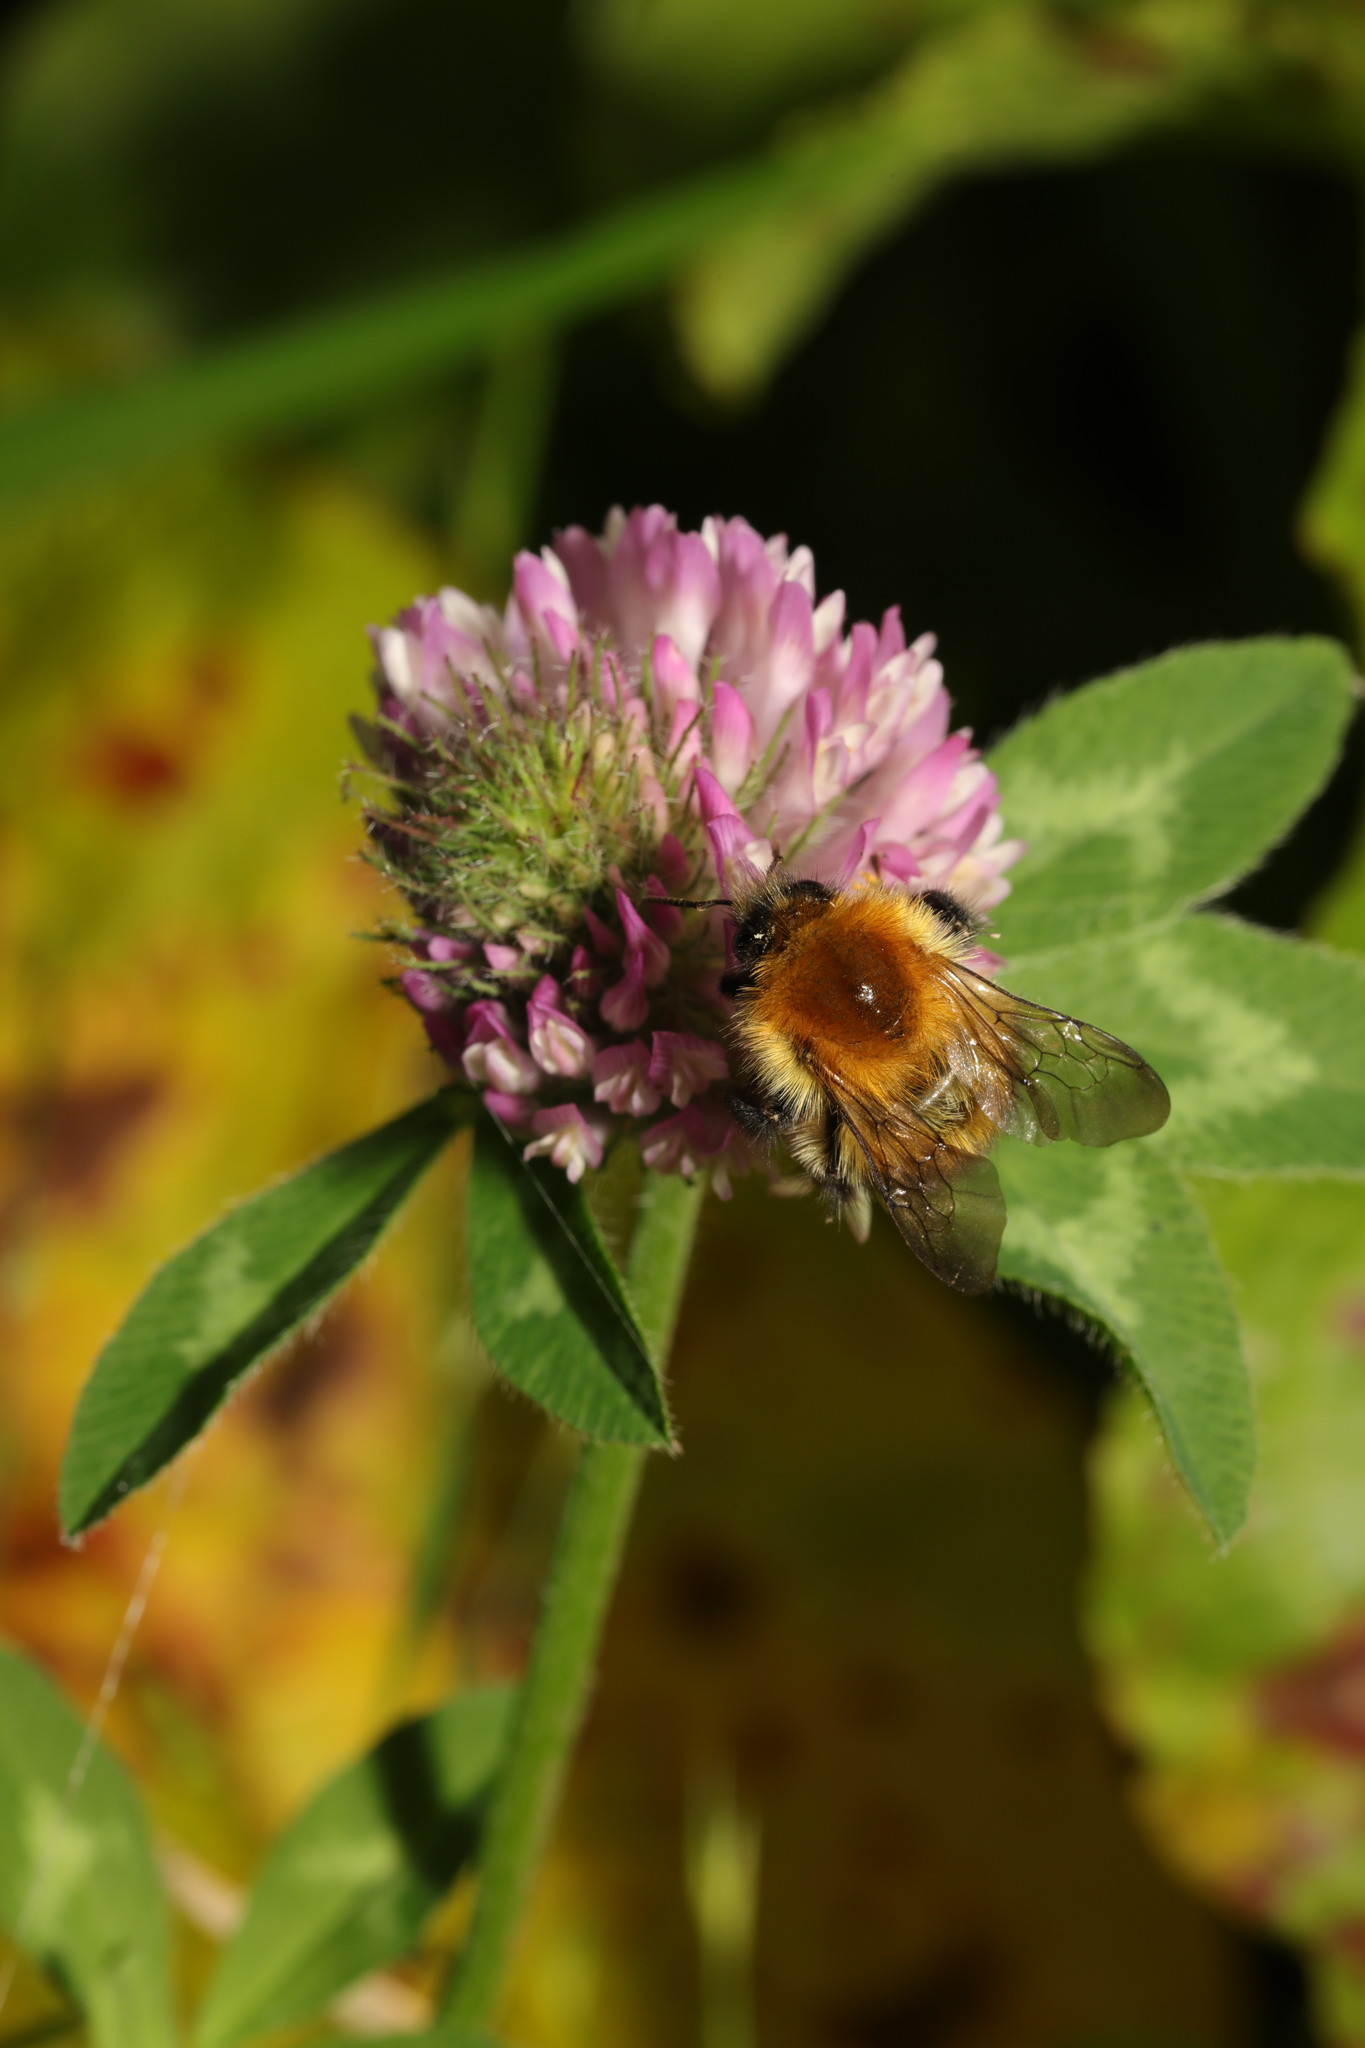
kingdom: Animalia
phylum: Arthropoda
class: Insecta
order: Hymenoptera
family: Apidae
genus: Bombus
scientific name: Bombus pascuorum
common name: Common carder bee
